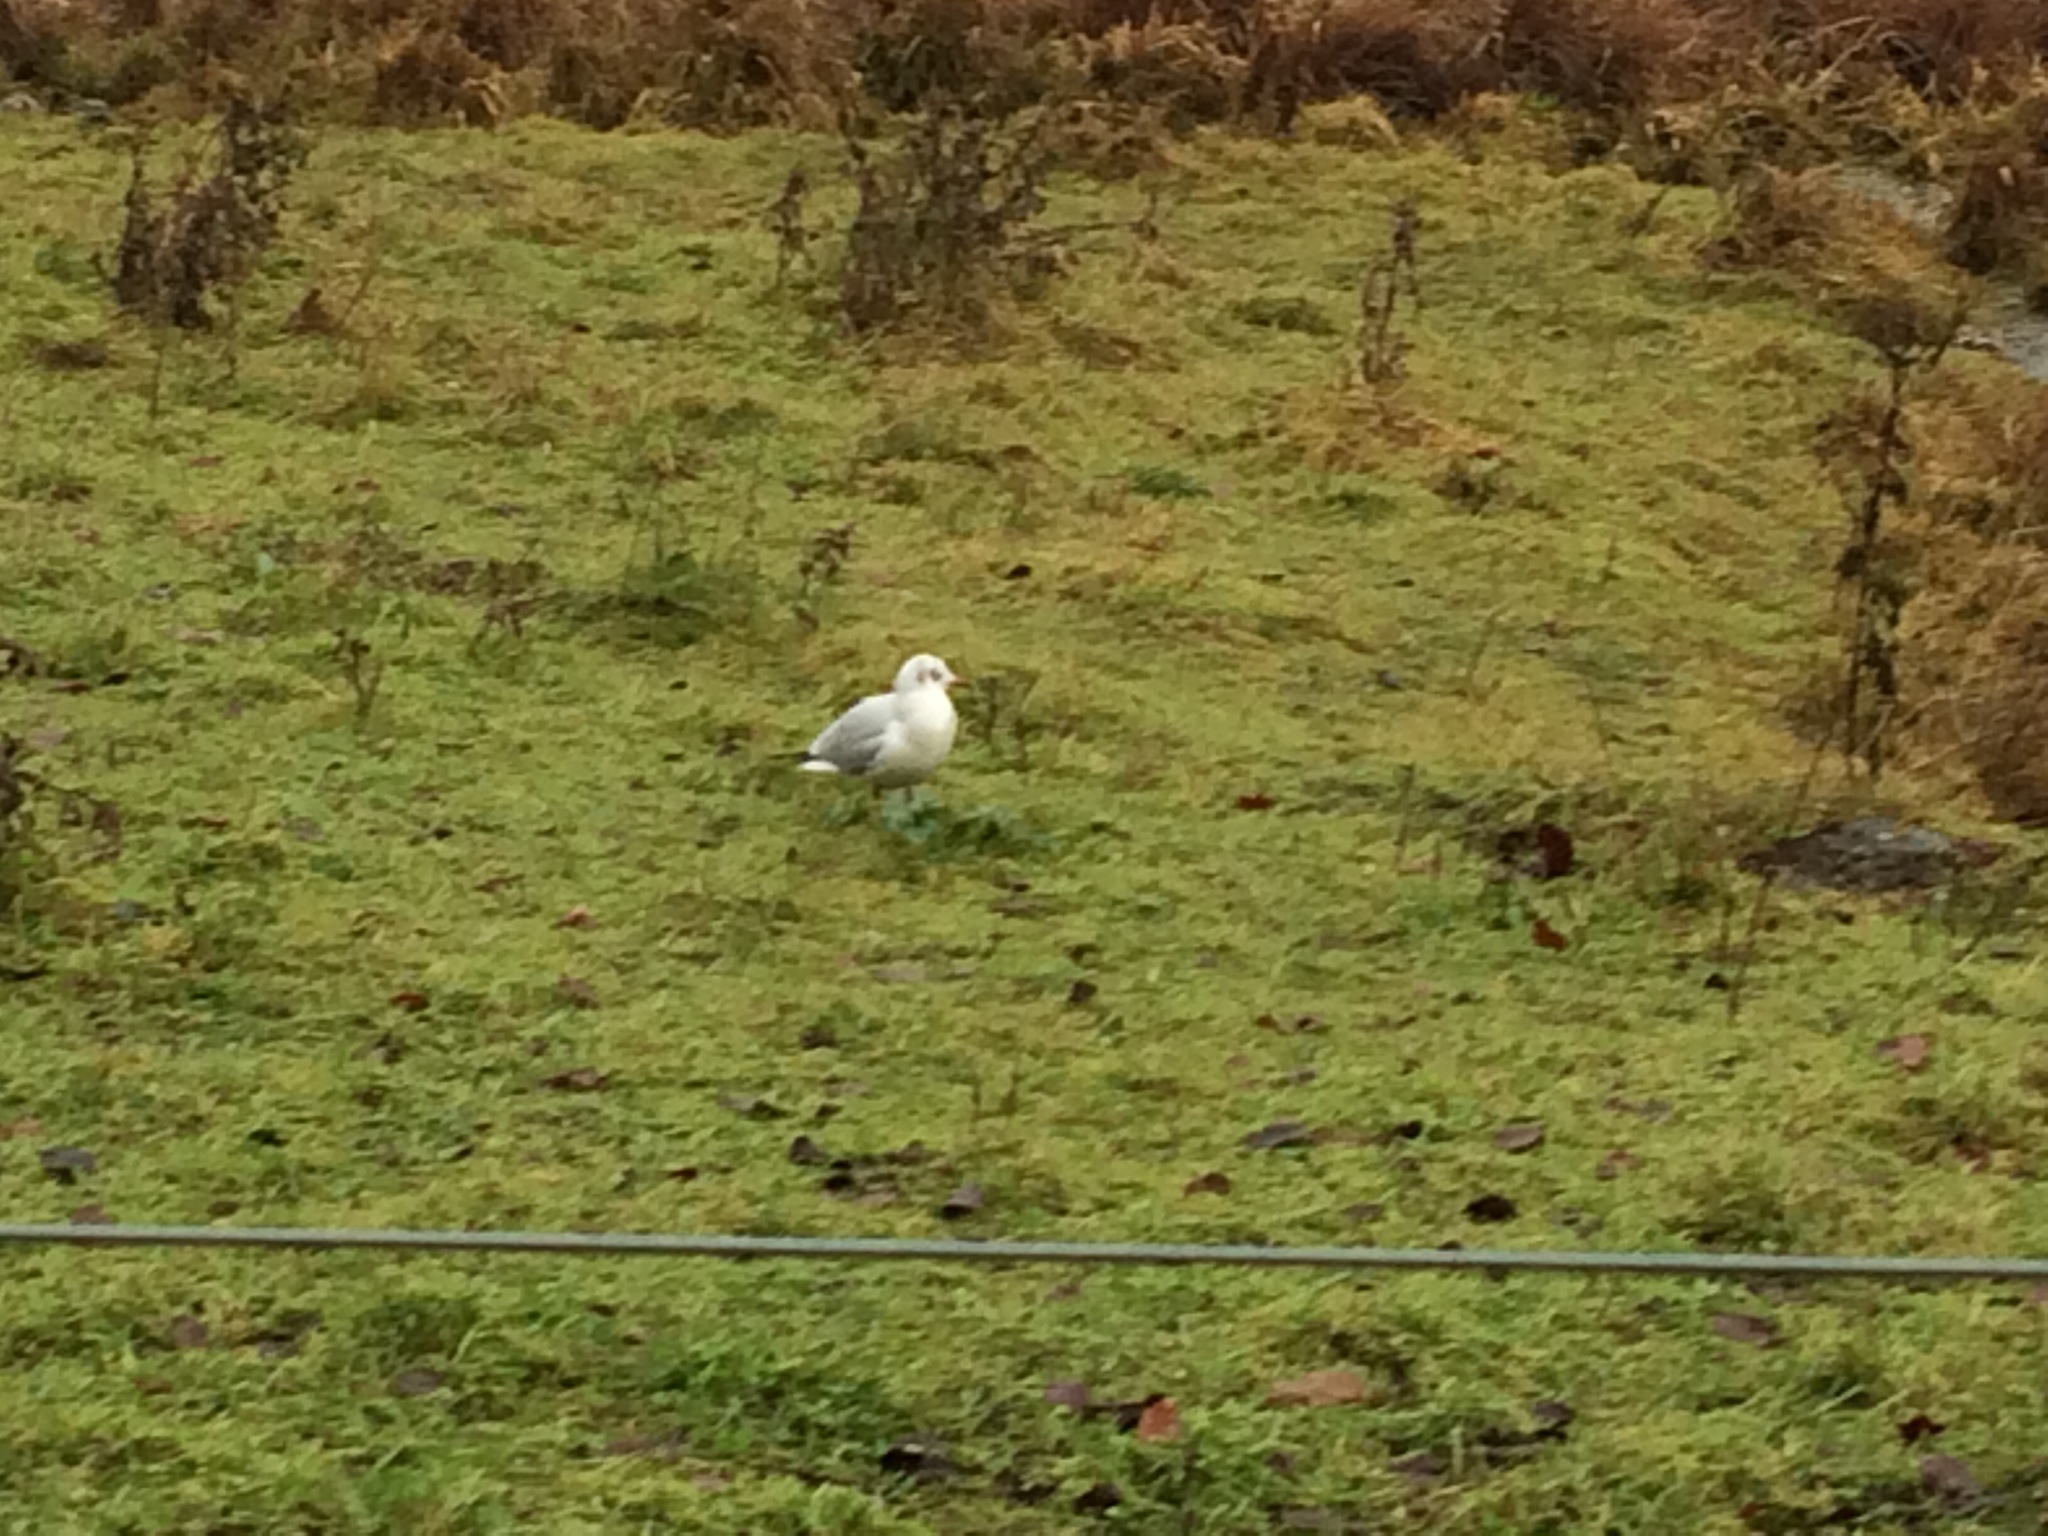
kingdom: Animalia
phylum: Chordata
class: Aves
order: Charadriiformes
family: Laridae
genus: Chroicocephalus
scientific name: Chroicocephalus ridibundus
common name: Black-headed gull
